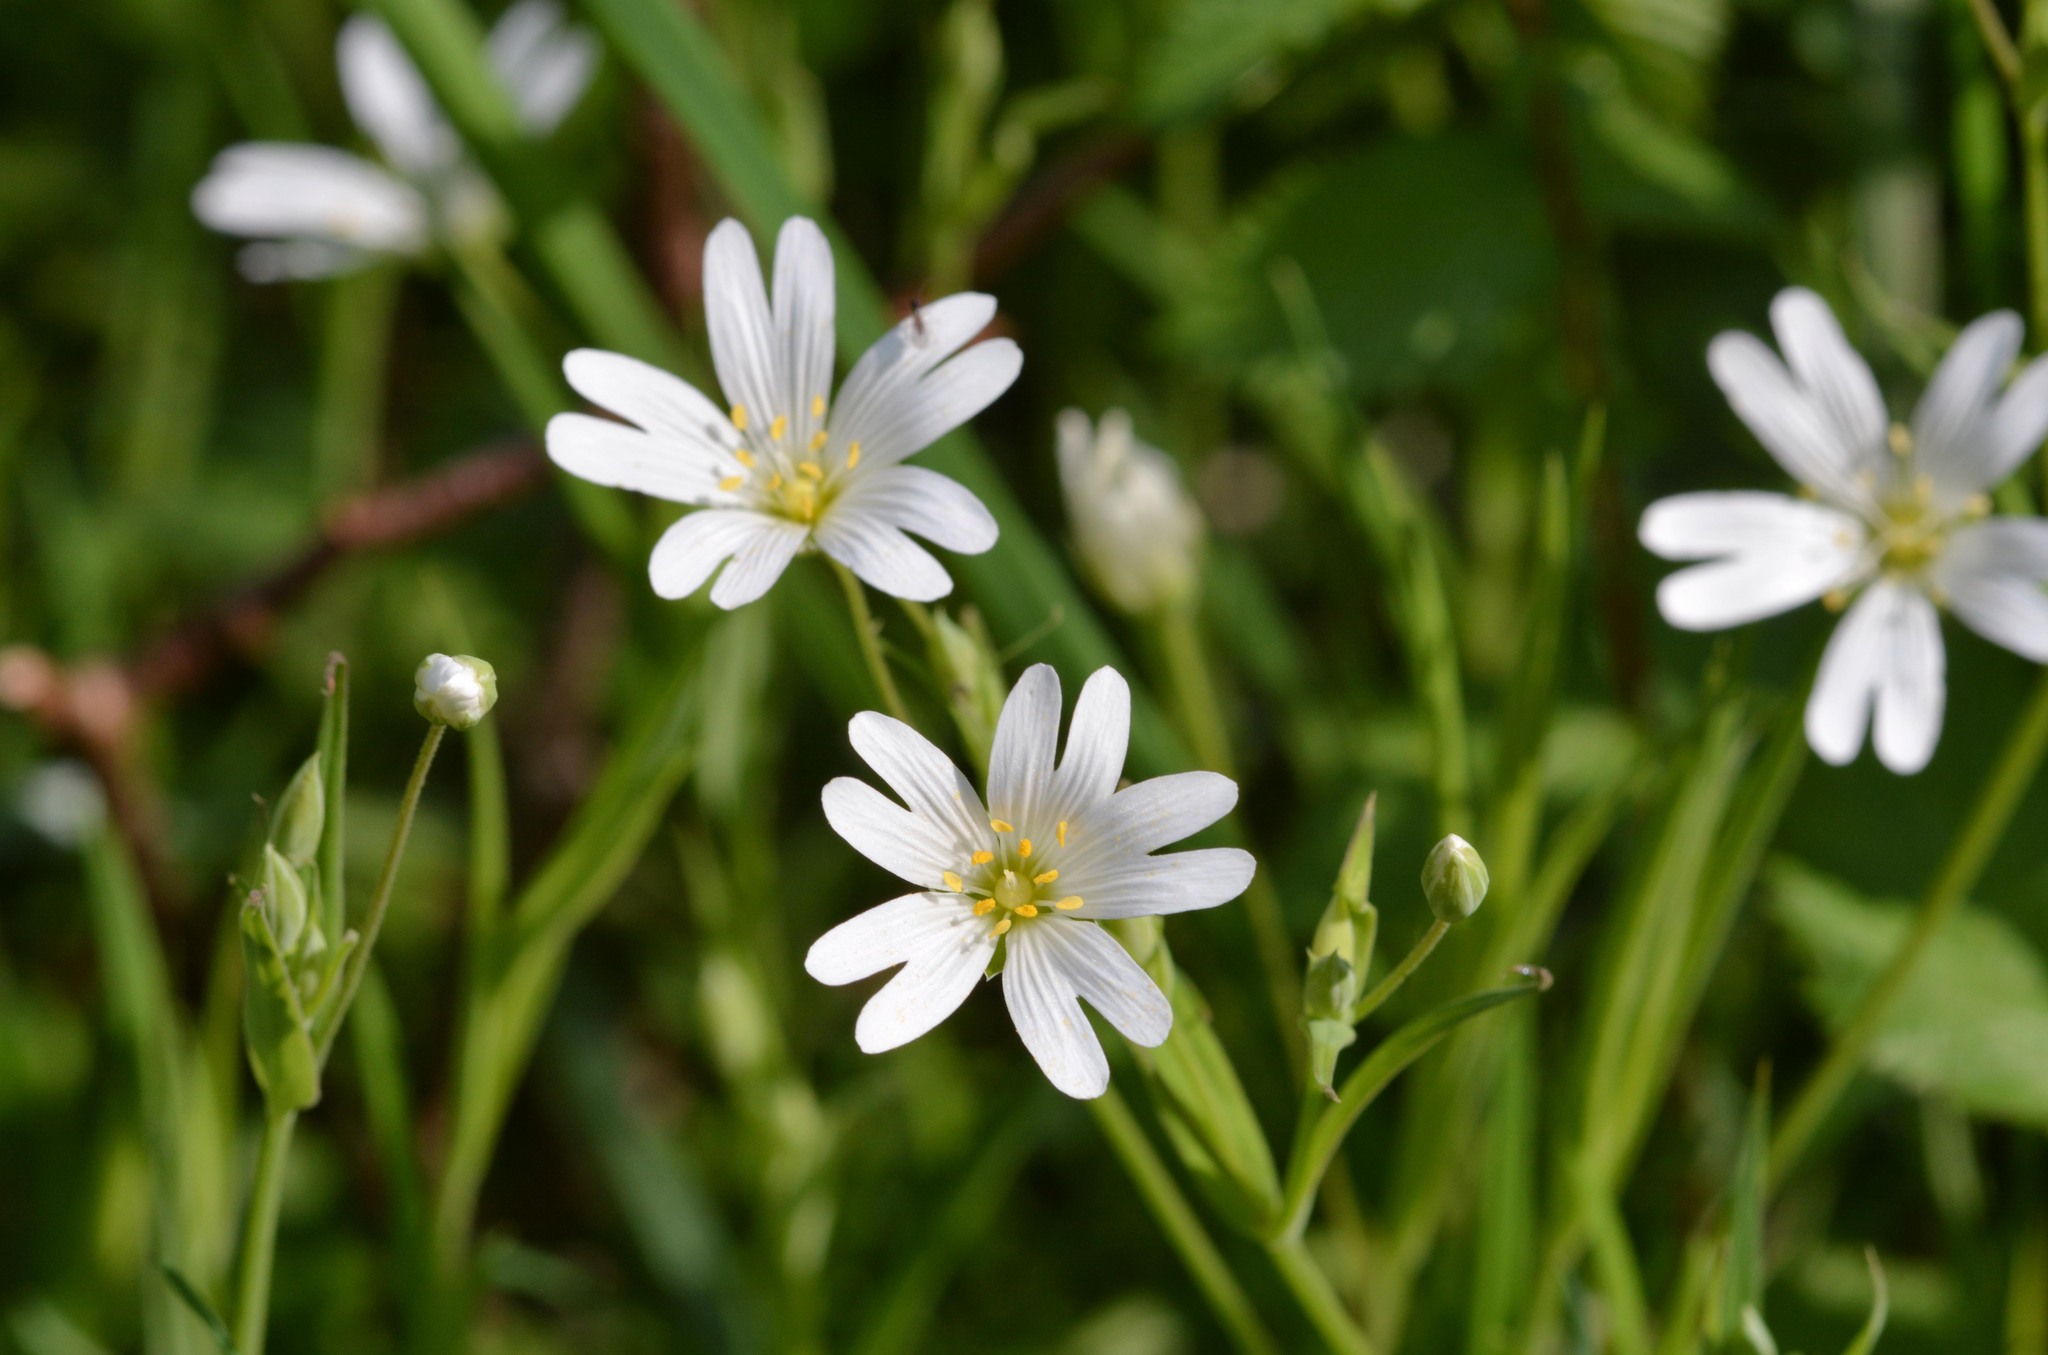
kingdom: Plantae
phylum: Tracheophyta
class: Magnoliopsida
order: Caryophyllales
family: Caryophyllaceae
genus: Rabelera
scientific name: Rabelera holostea
